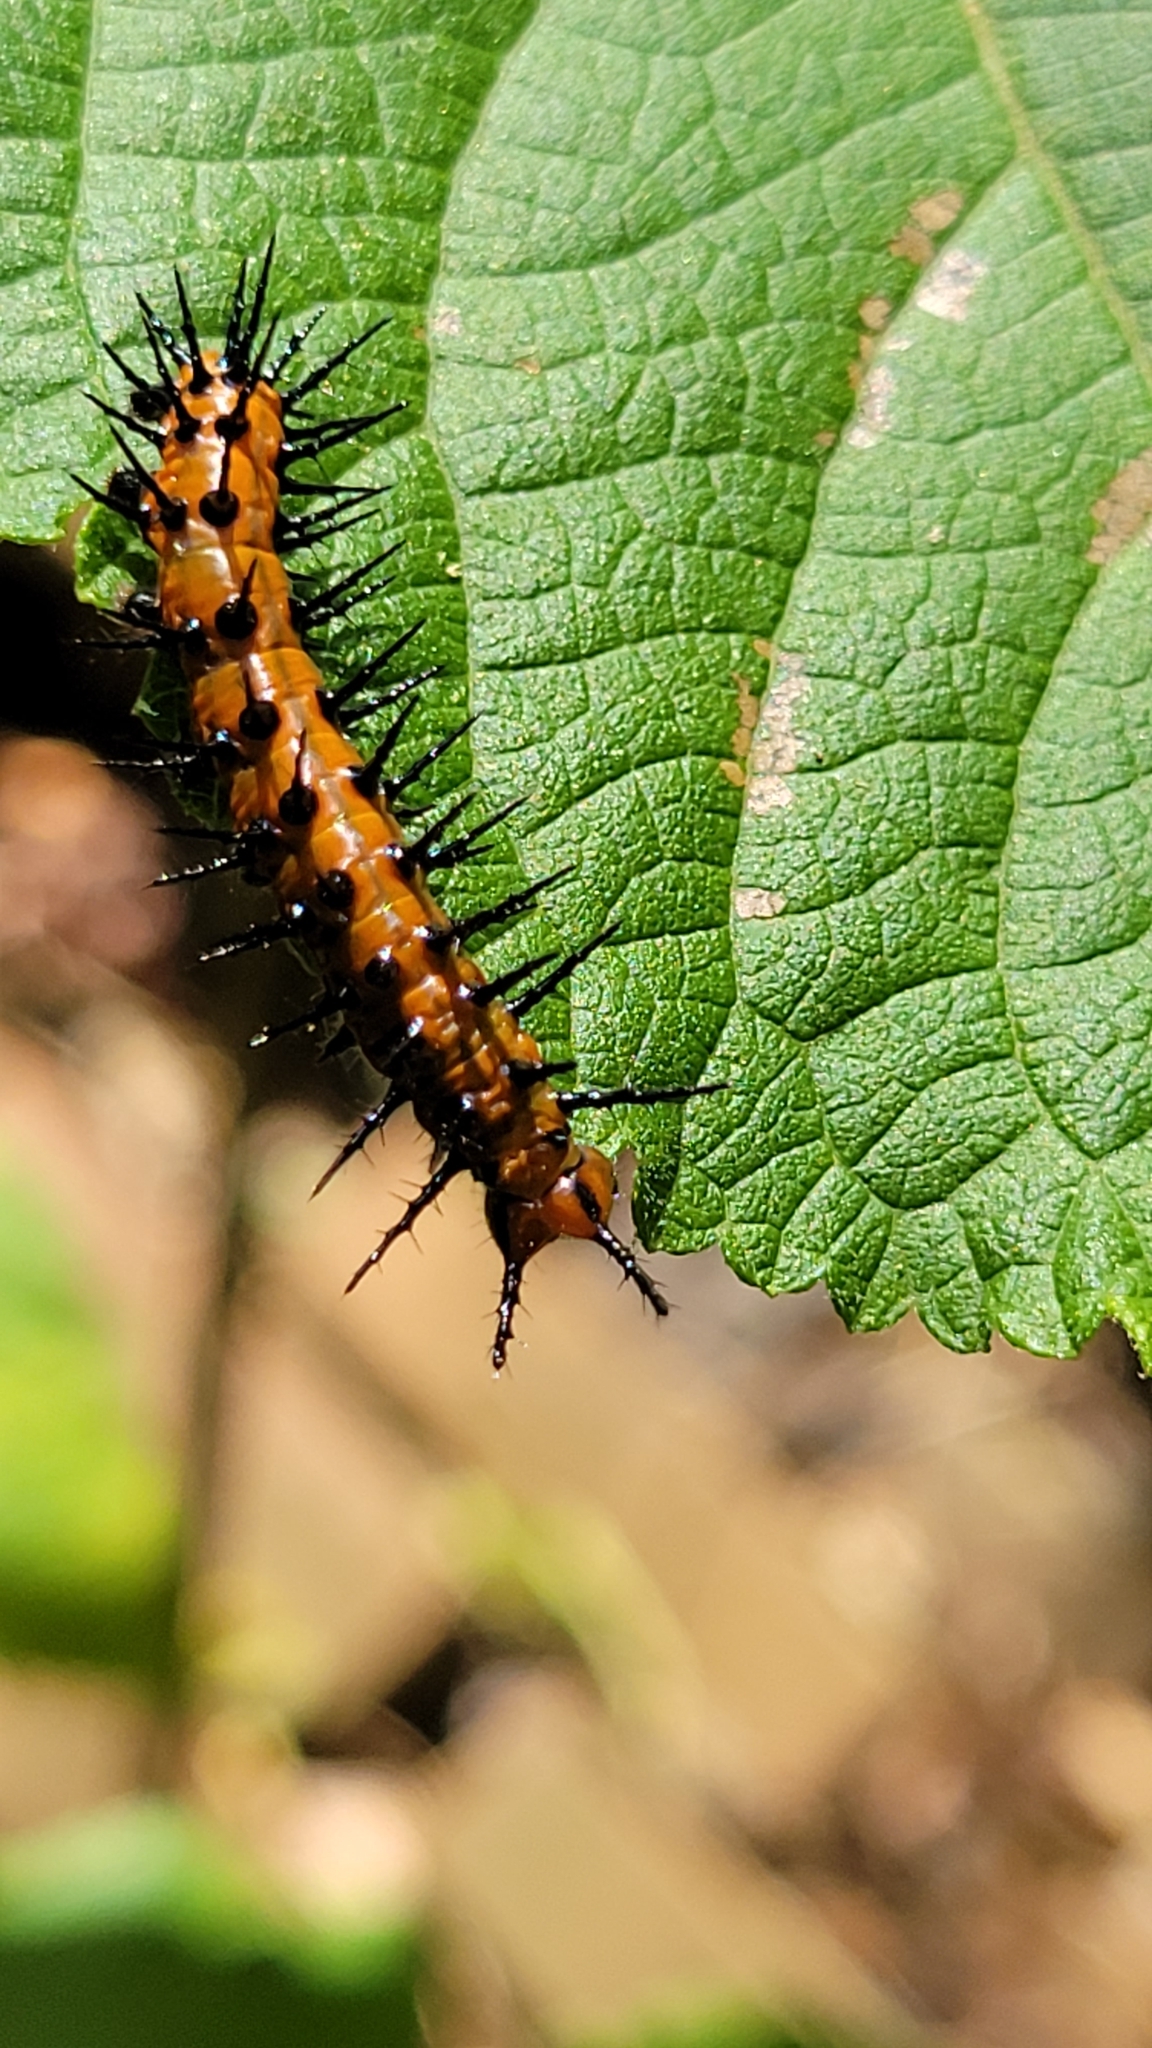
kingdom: Animalia
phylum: Arthropoda
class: Insecta
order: Lepidoptera
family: Nymphalidae
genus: Dione
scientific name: Dione vanillae
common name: Gulf fritillary
